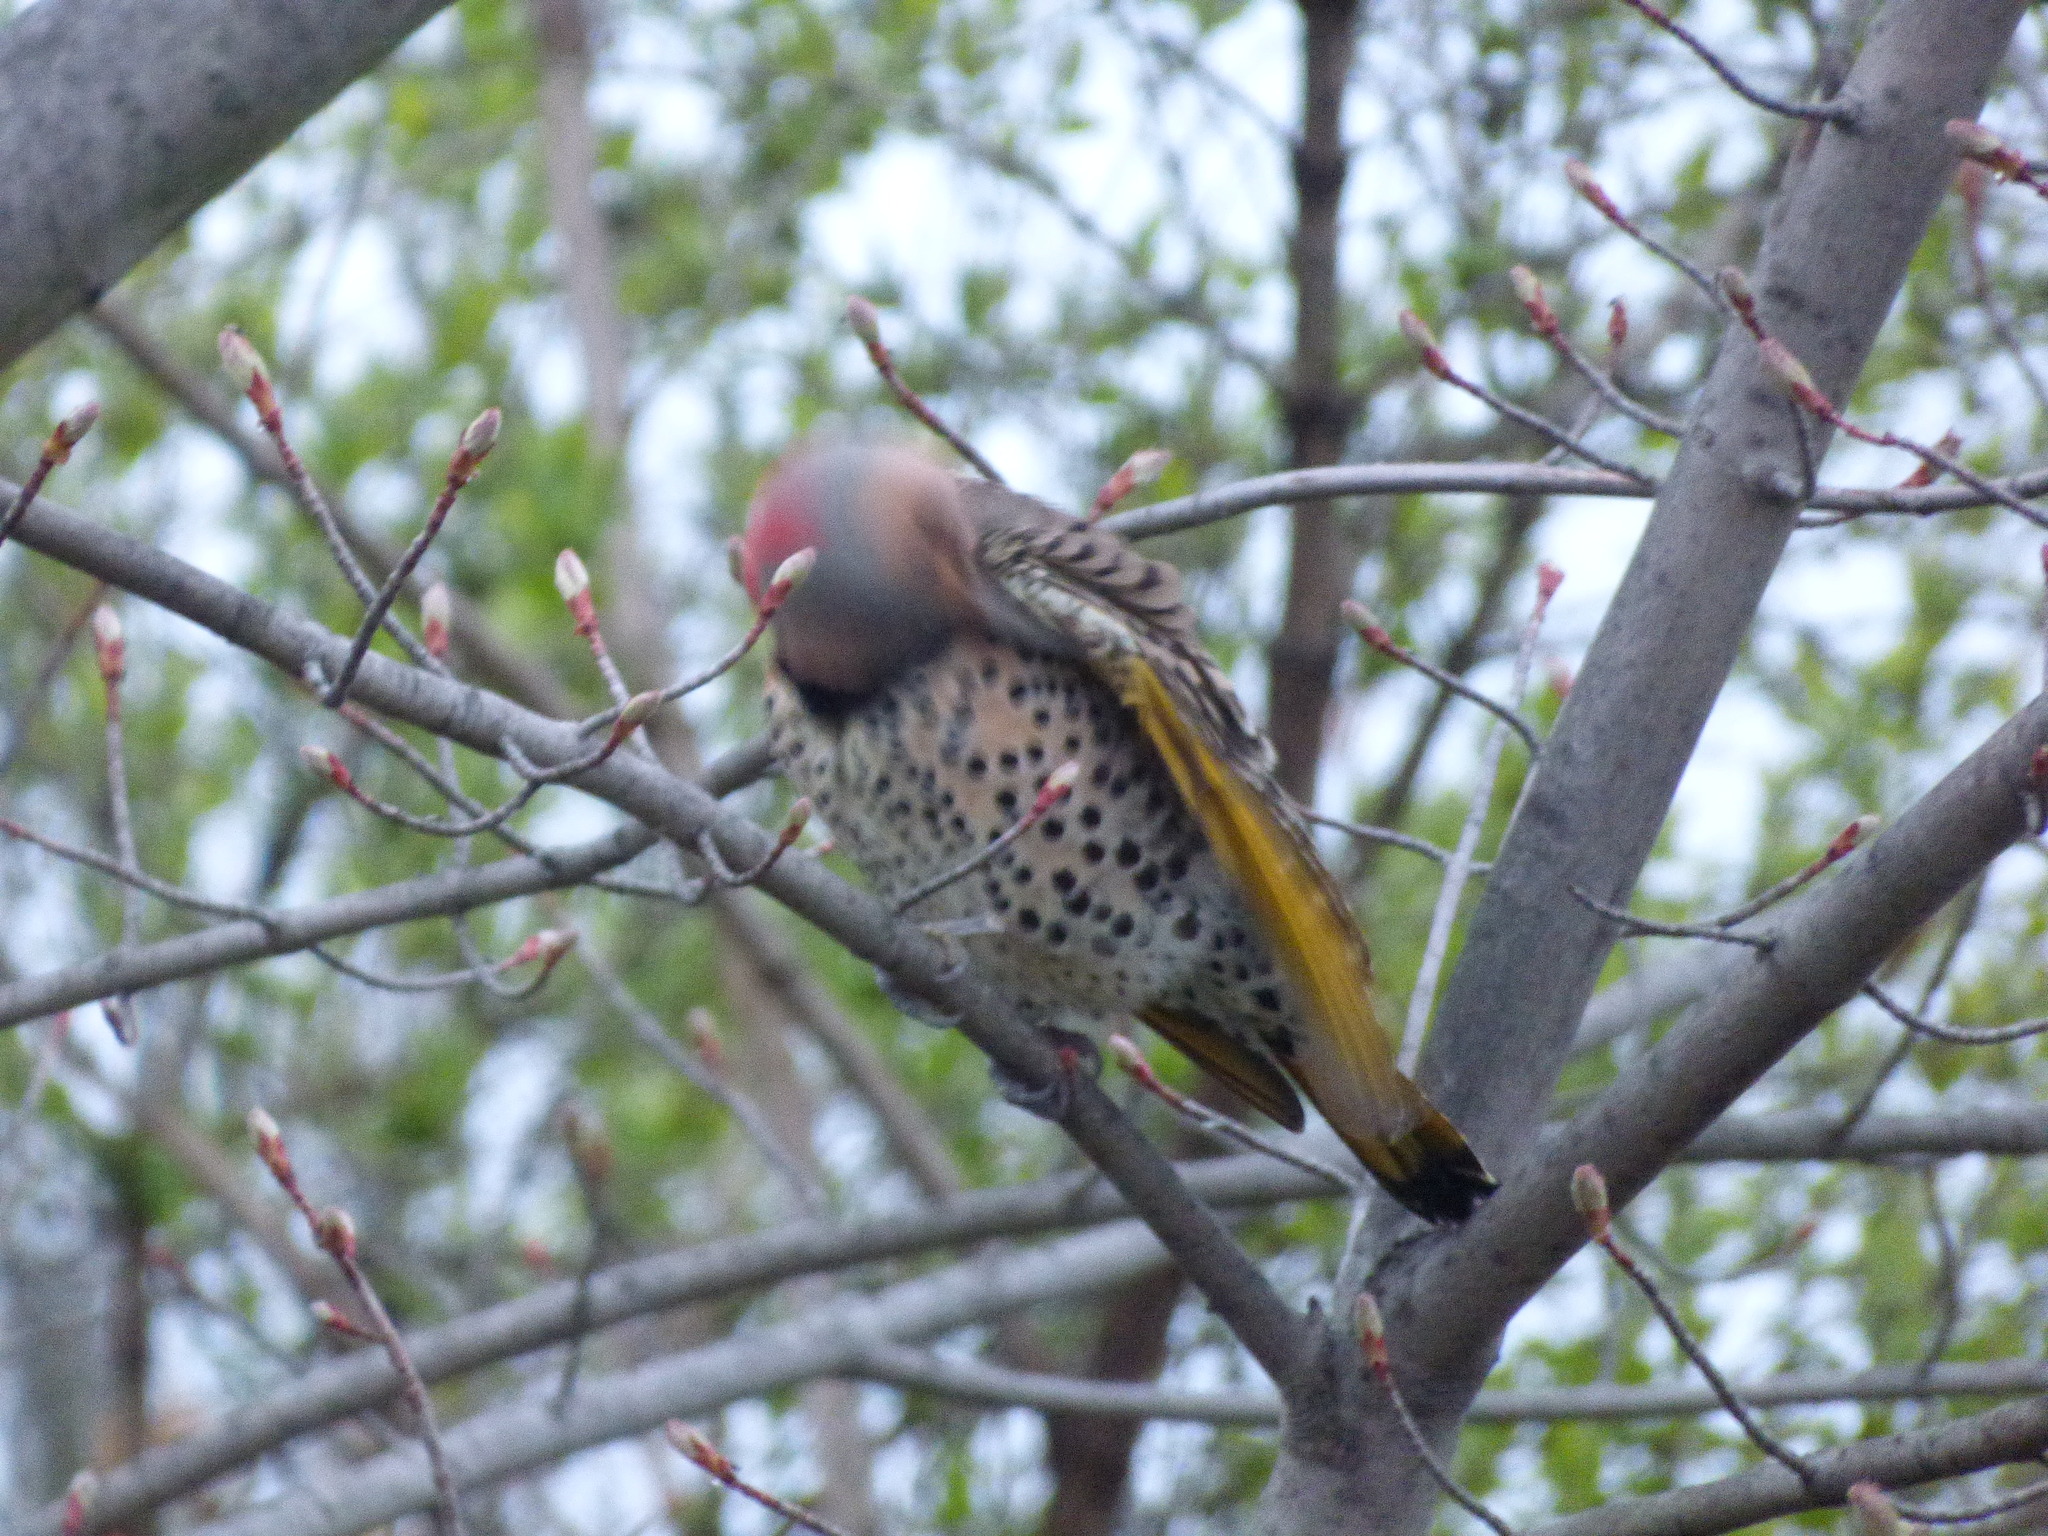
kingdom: Animalia
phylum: Chordata
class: Aves
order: Piciformes
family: Picidae
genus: Colaptes
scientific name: Colaptes auratus
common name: Northern flicker
